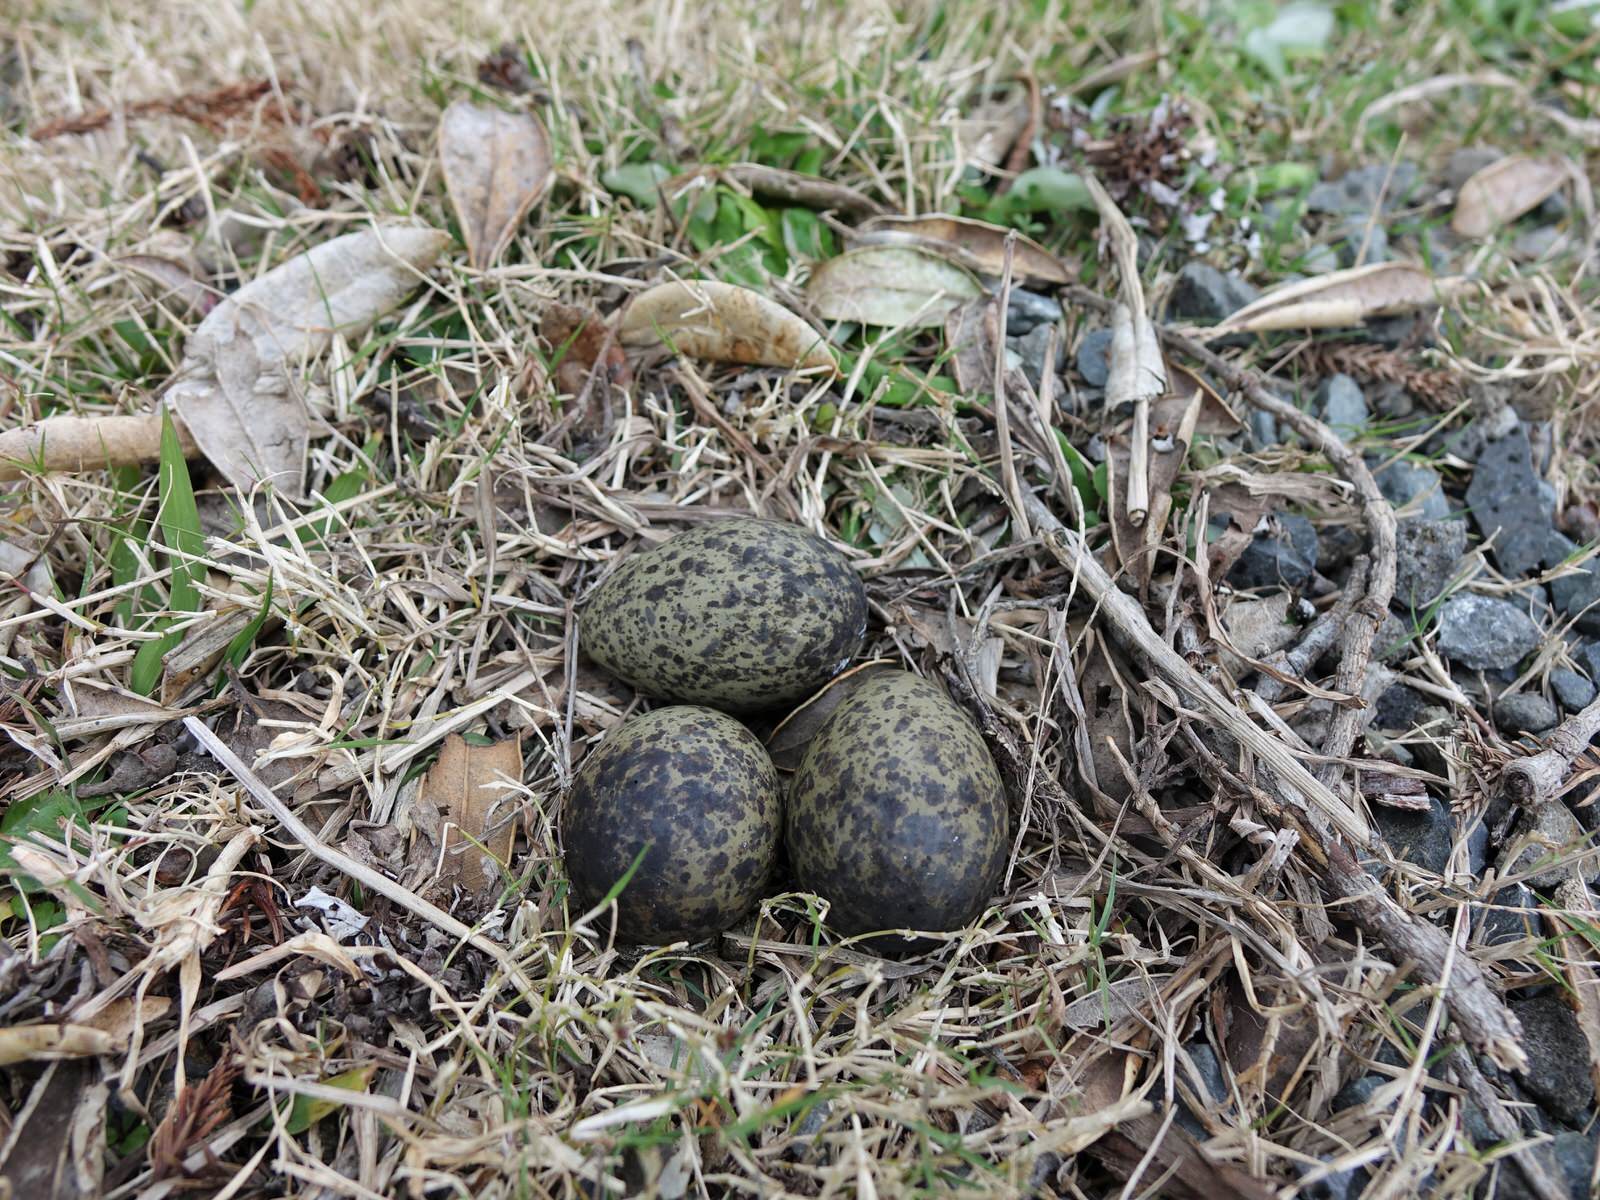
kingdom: Animalia
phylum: Chordata
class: Aves
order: Charadriiformes
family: Charadriidae
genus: Vanellus
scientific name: Vanellus miles
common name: Masked lapwing
